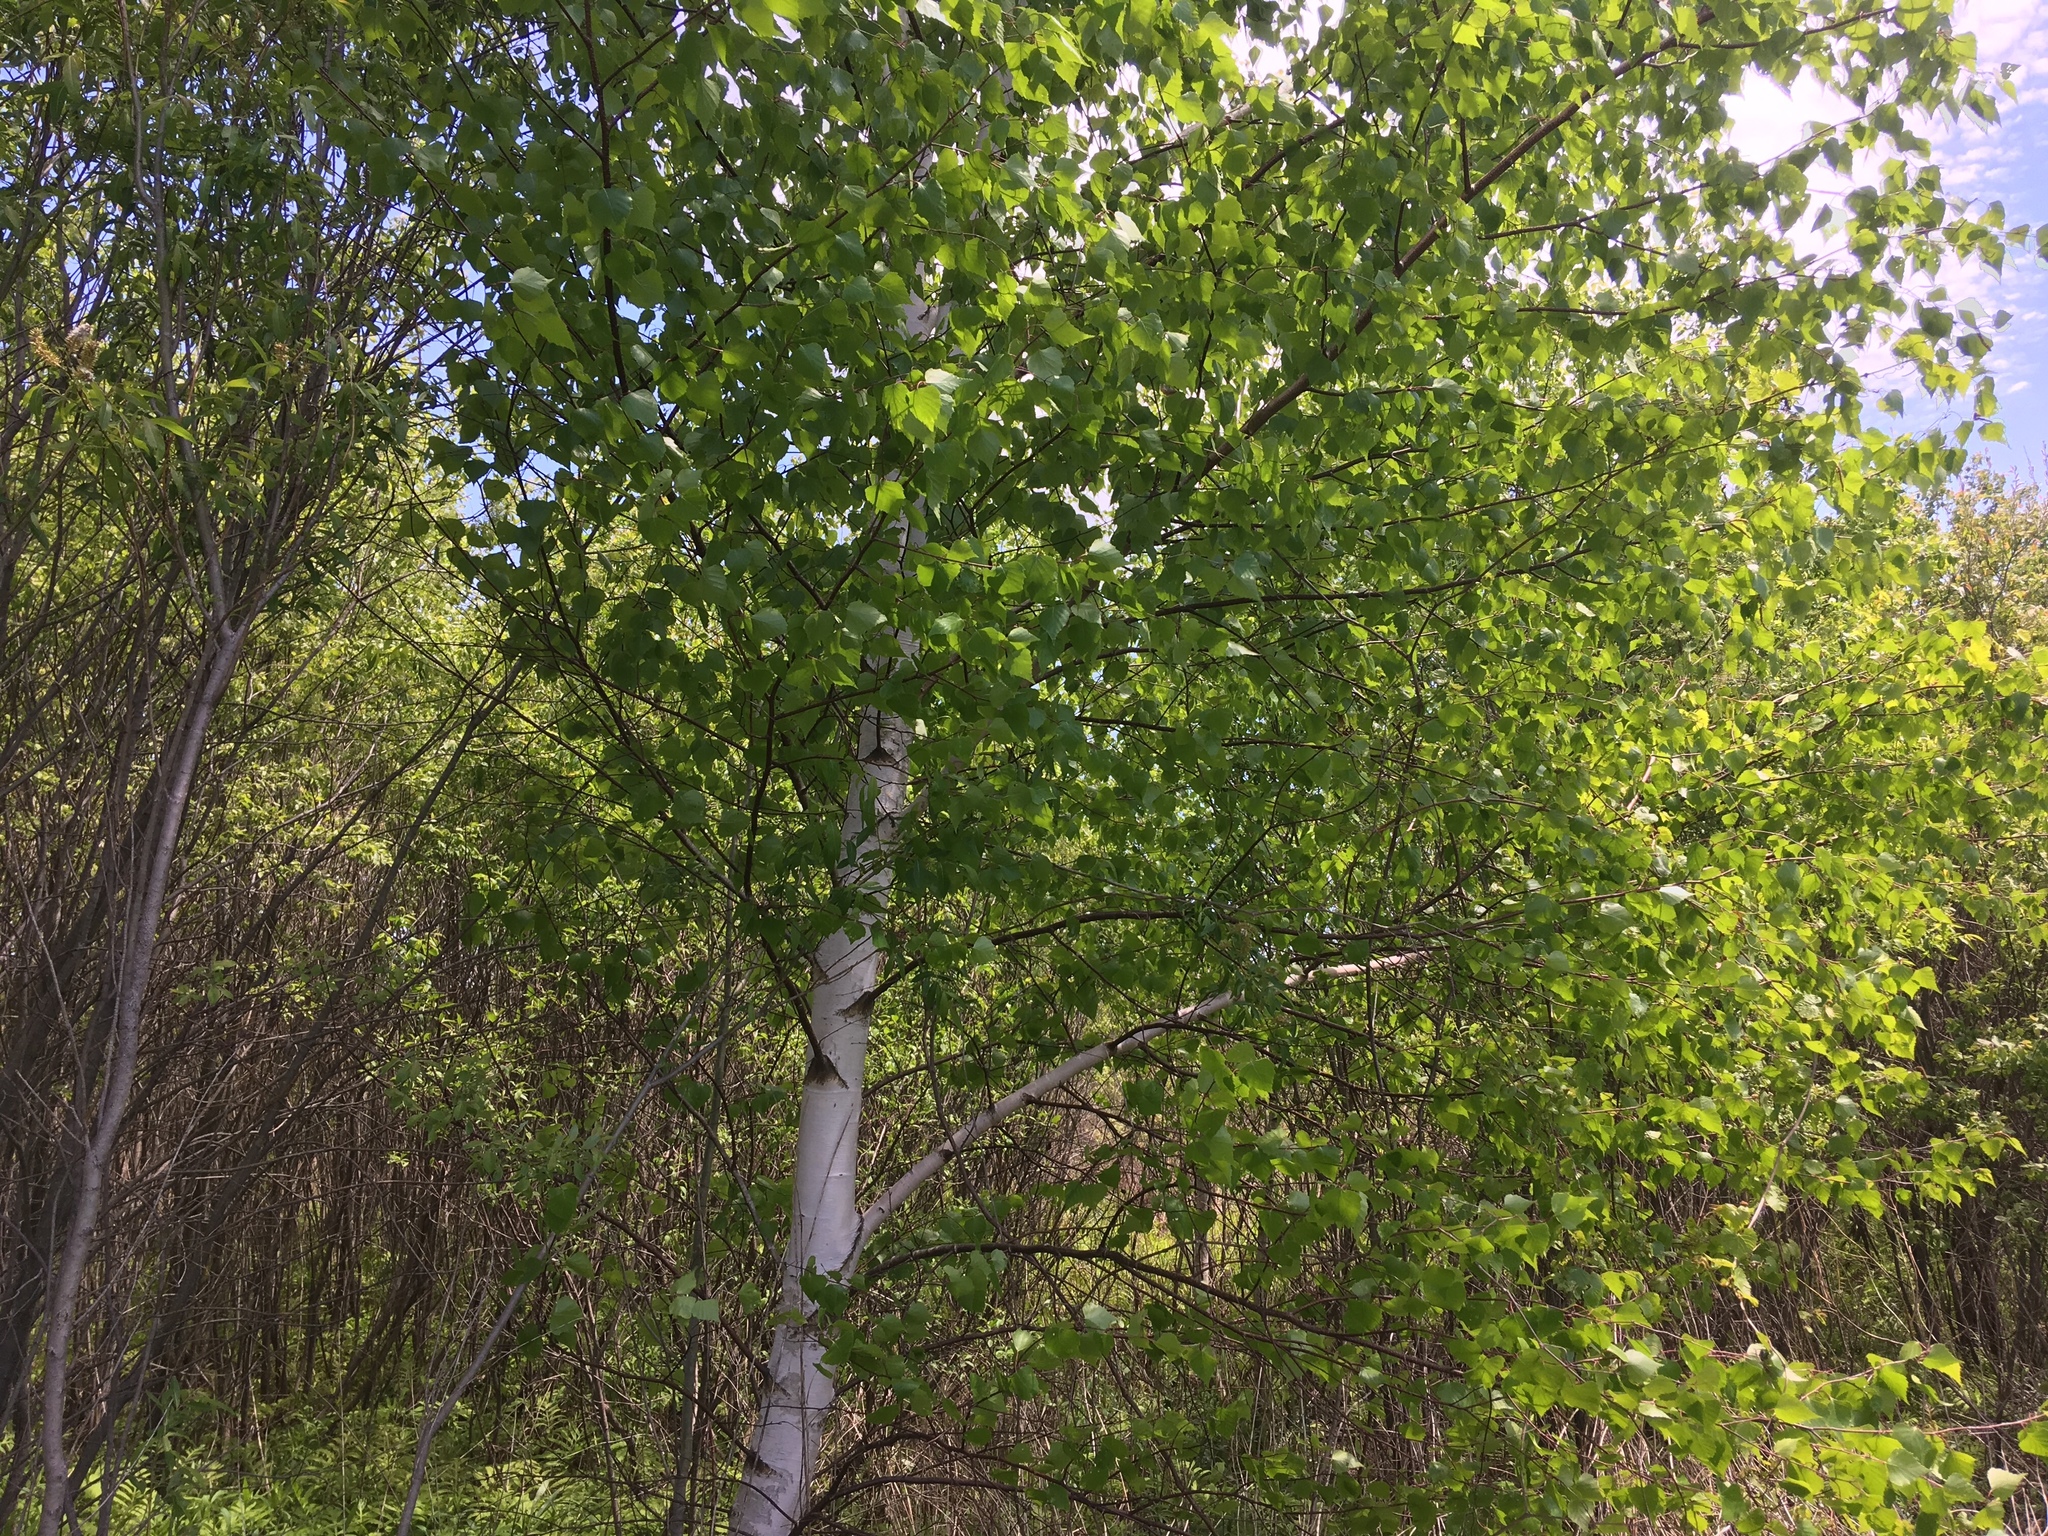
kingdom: Plantae
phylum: Tracheophyta
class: Magnoliopsida
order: Fagales
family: Betulaceae
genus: Betula
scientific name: Betula papyrifera
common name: Paper birch
